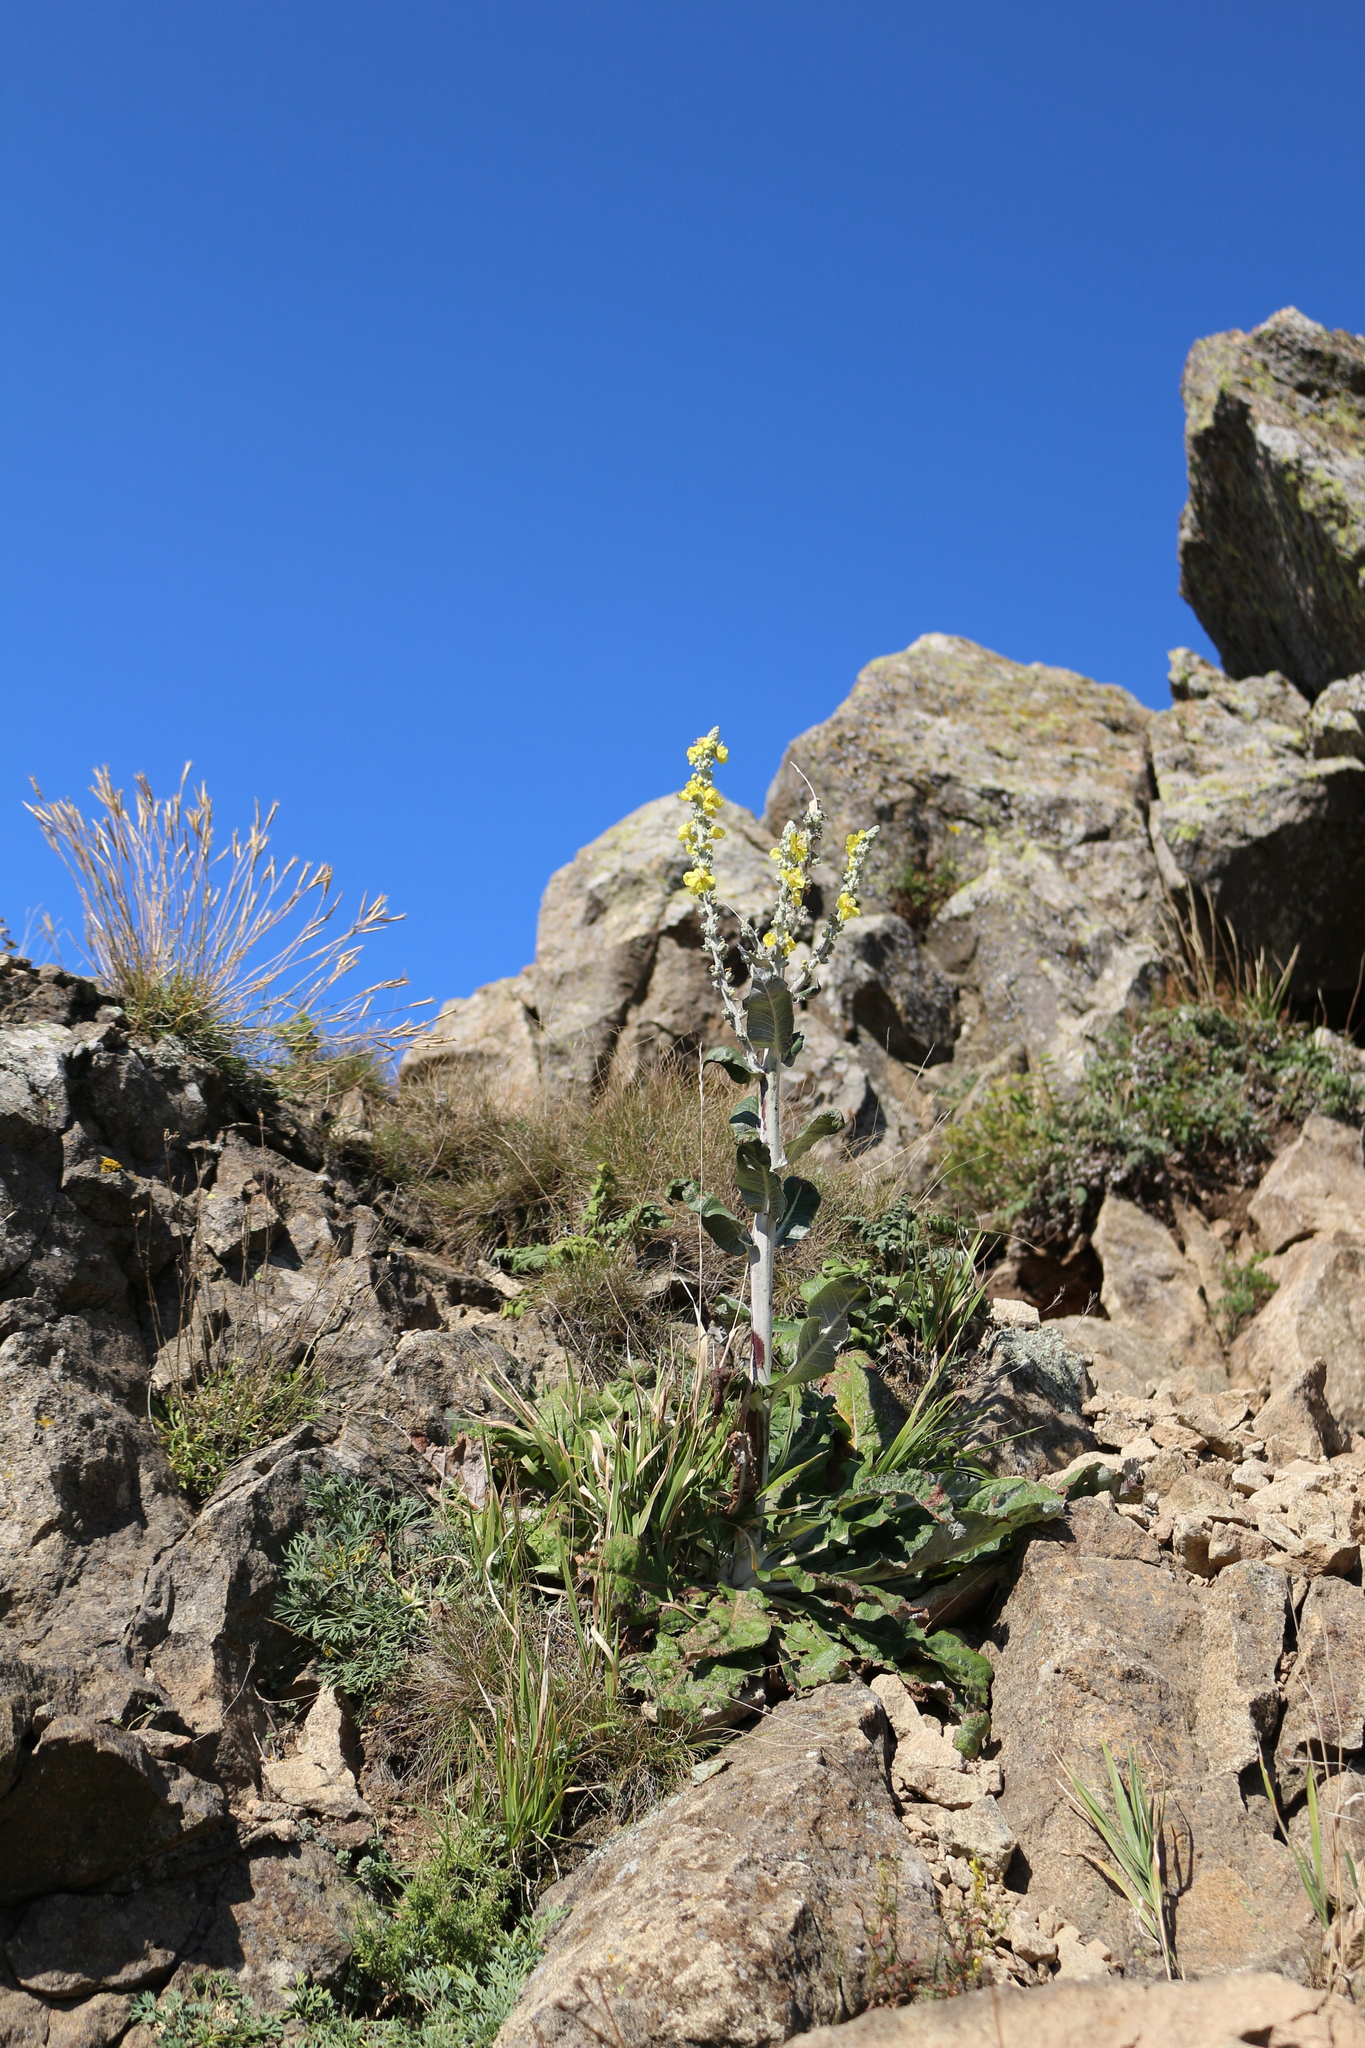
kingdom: Plantae
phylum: Tracheophyta
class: Magnoliopsida
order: Lamiales
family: Scrophulariaceae
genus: Verbascum
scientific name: Verbascum gnaphalodes
